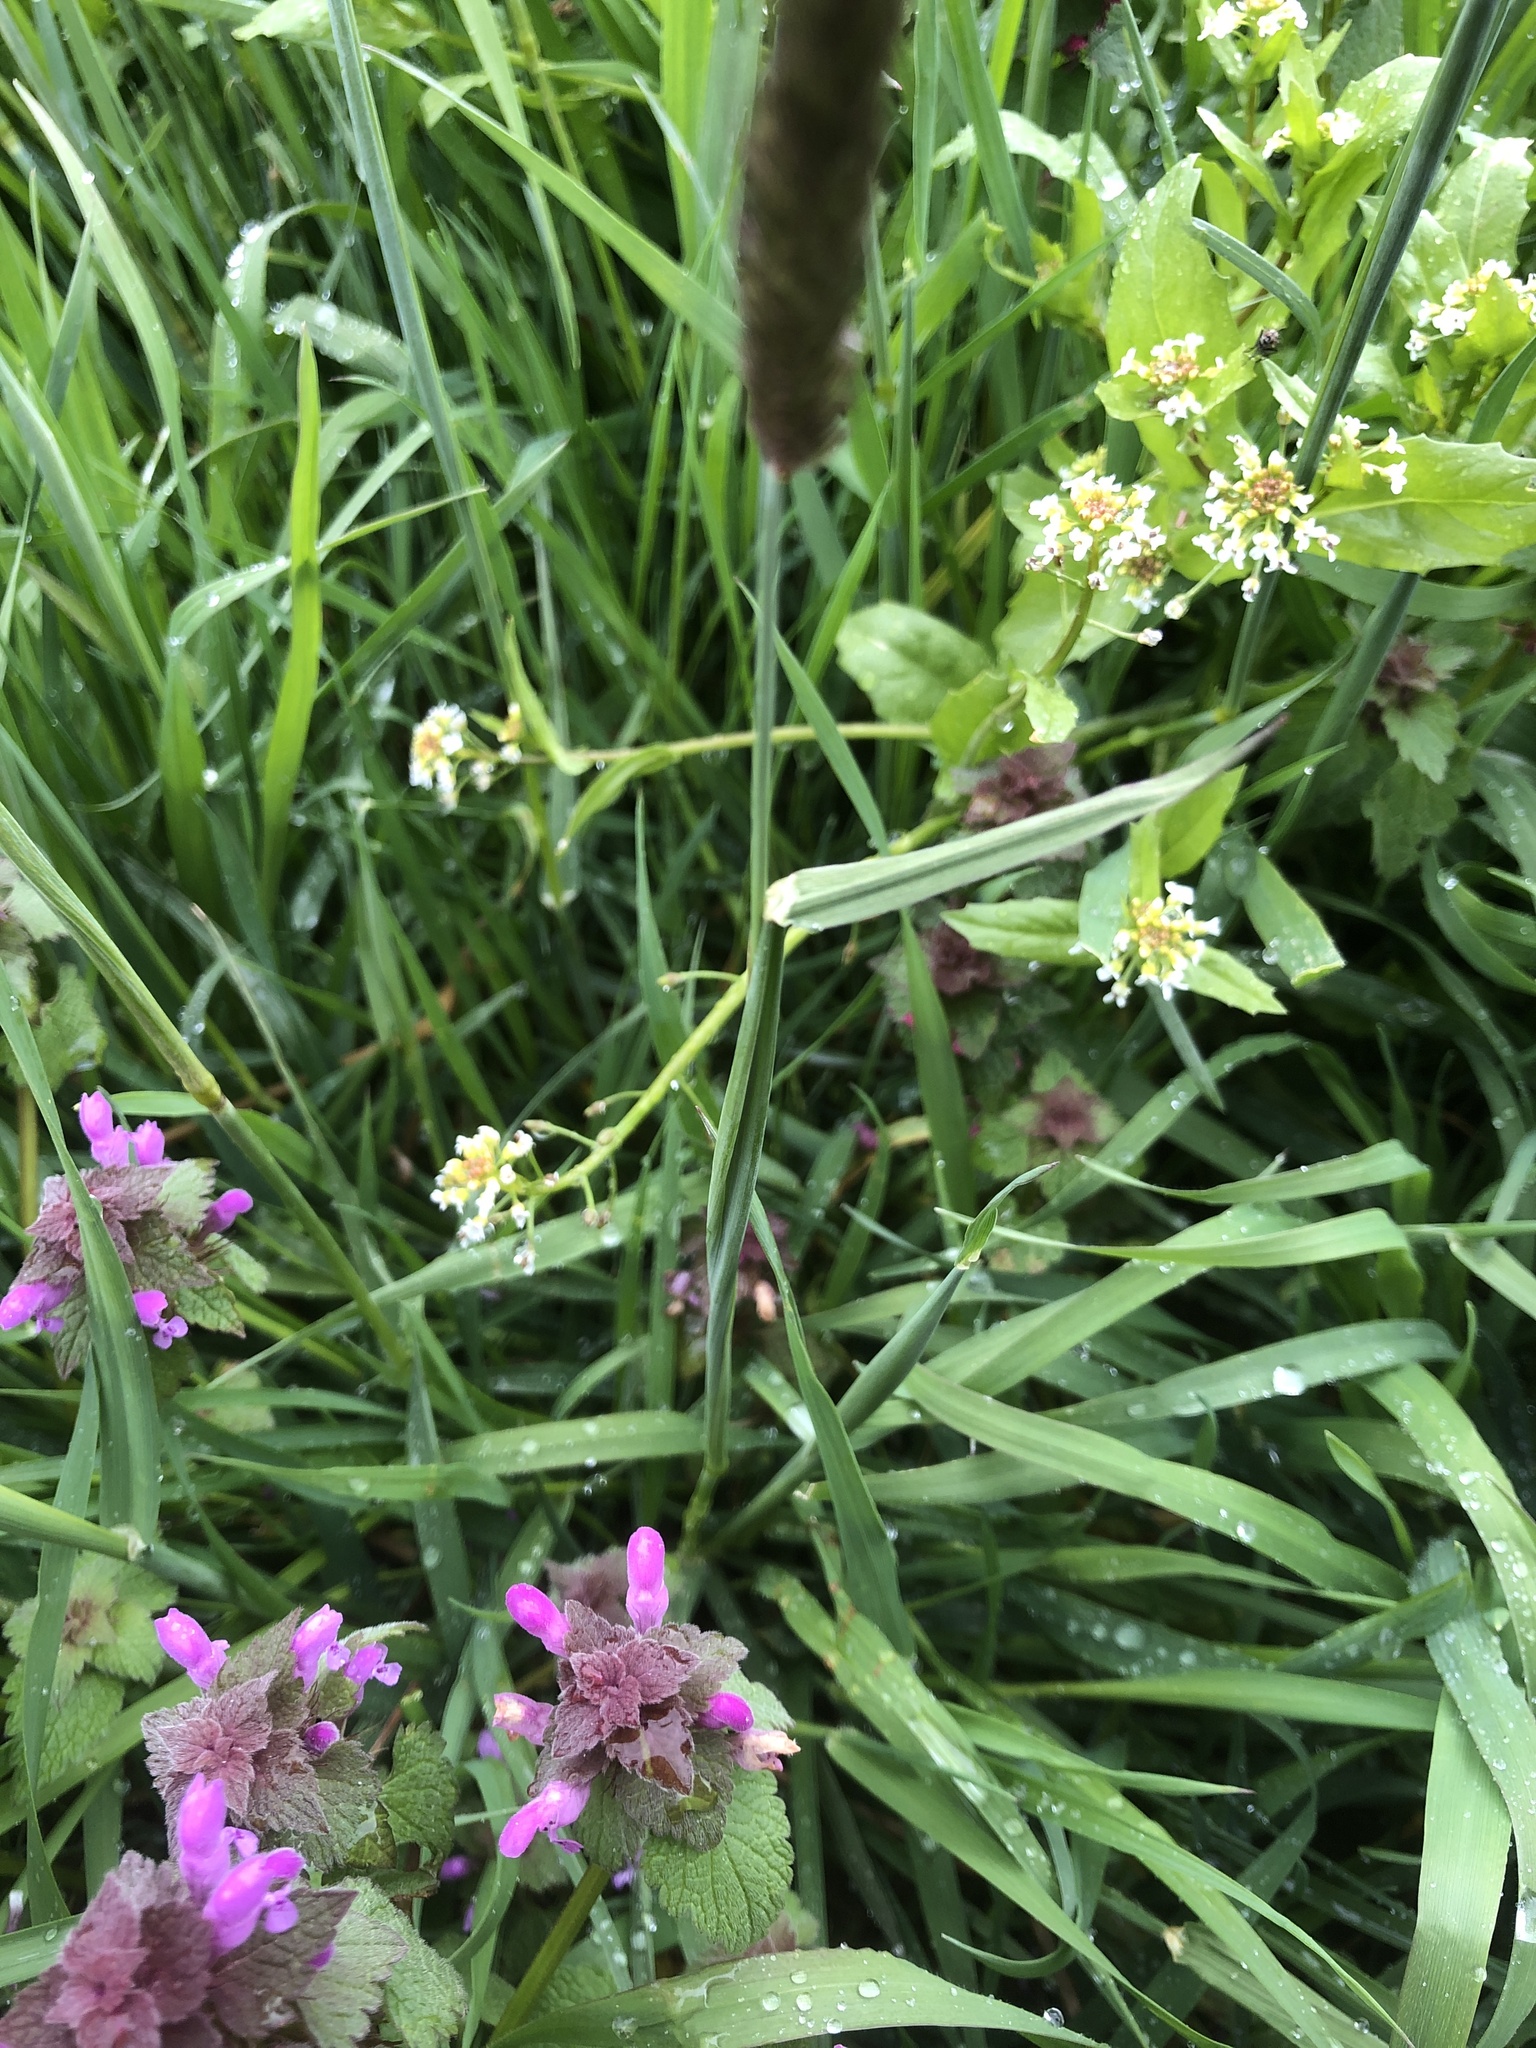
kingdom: Plantae
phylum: Tracheophyta
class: Liliopsida
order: Poales
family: Poaceae
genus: Alopecurus
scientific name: Alopecurus pratensis
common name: Meadow foxtail
